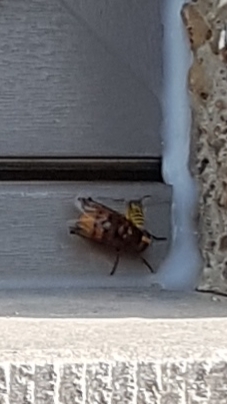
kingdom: Animalia
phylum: Arthropoda
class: Insecta
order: Diptera
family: Syrphidae
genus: Volucella
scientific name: Volucella zonaria
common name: Hornet hoverfly
